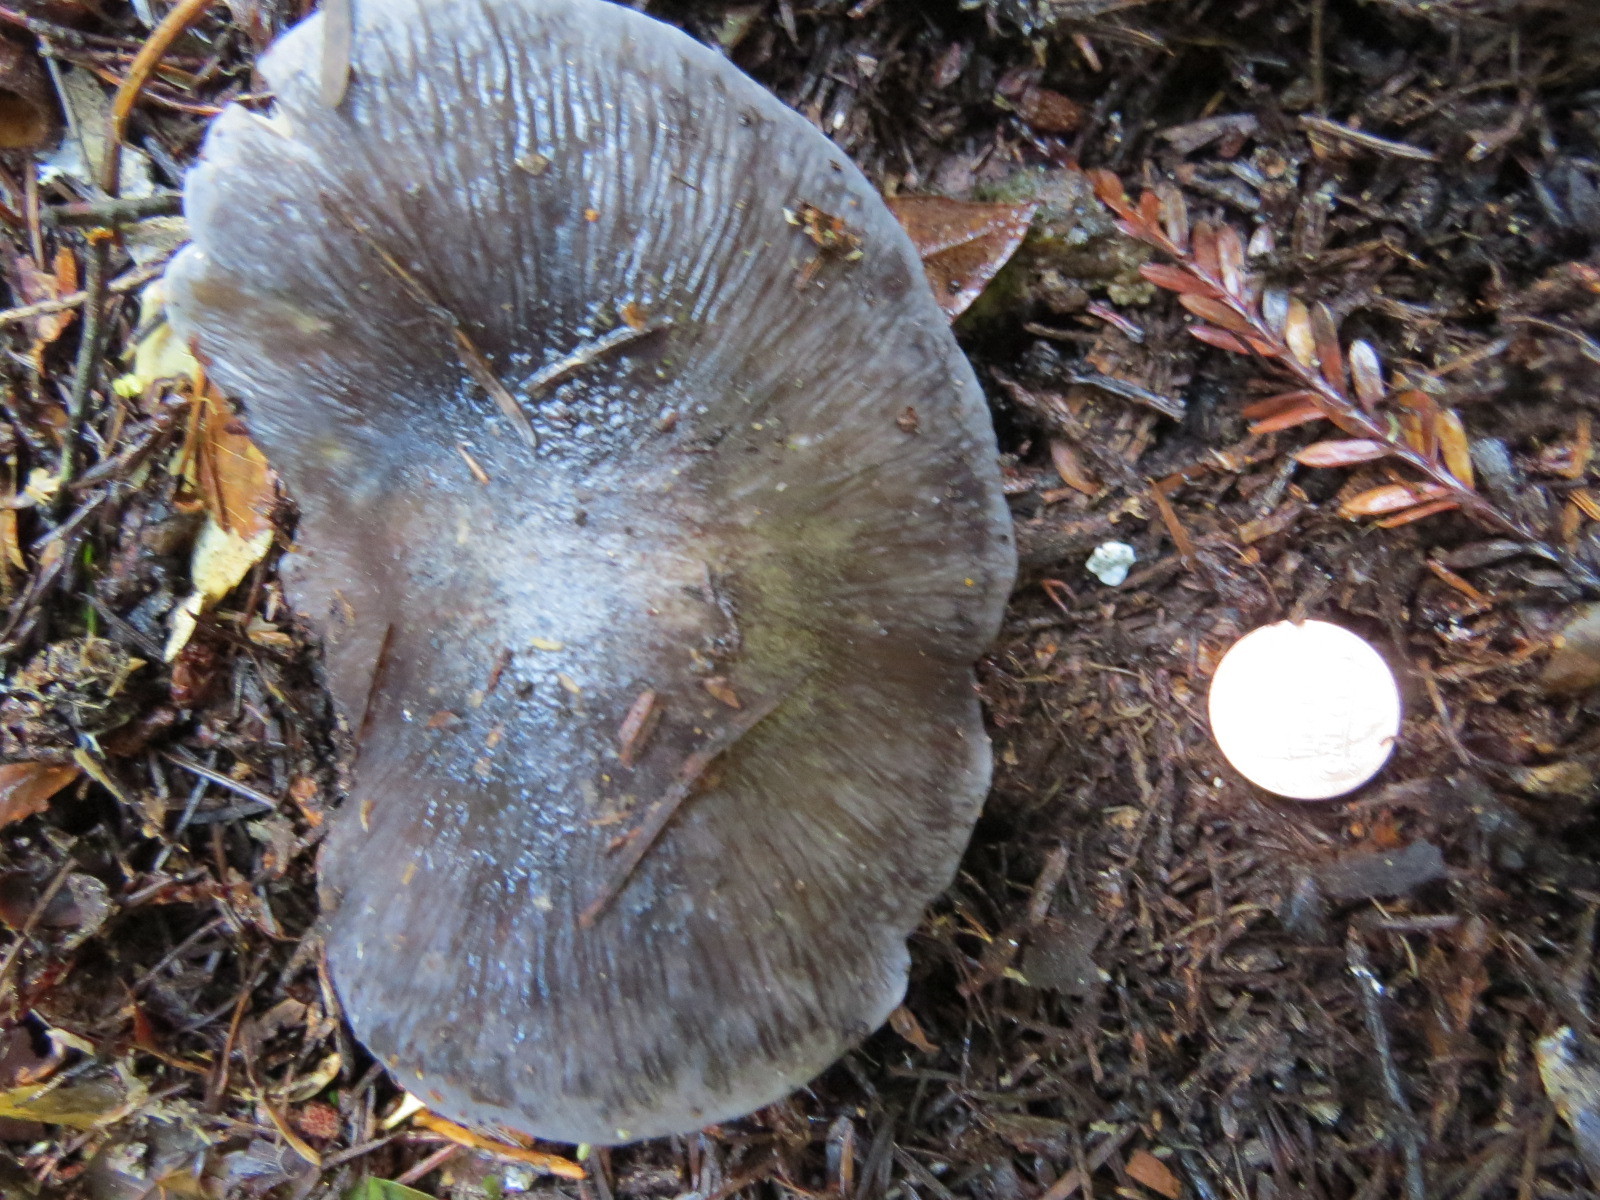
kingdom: Fungi
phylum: Basidiomycota
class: Agaricomycetes
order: Agaricales
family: Entolomataceae
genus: Entoloma
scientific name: Entoloma medianox
